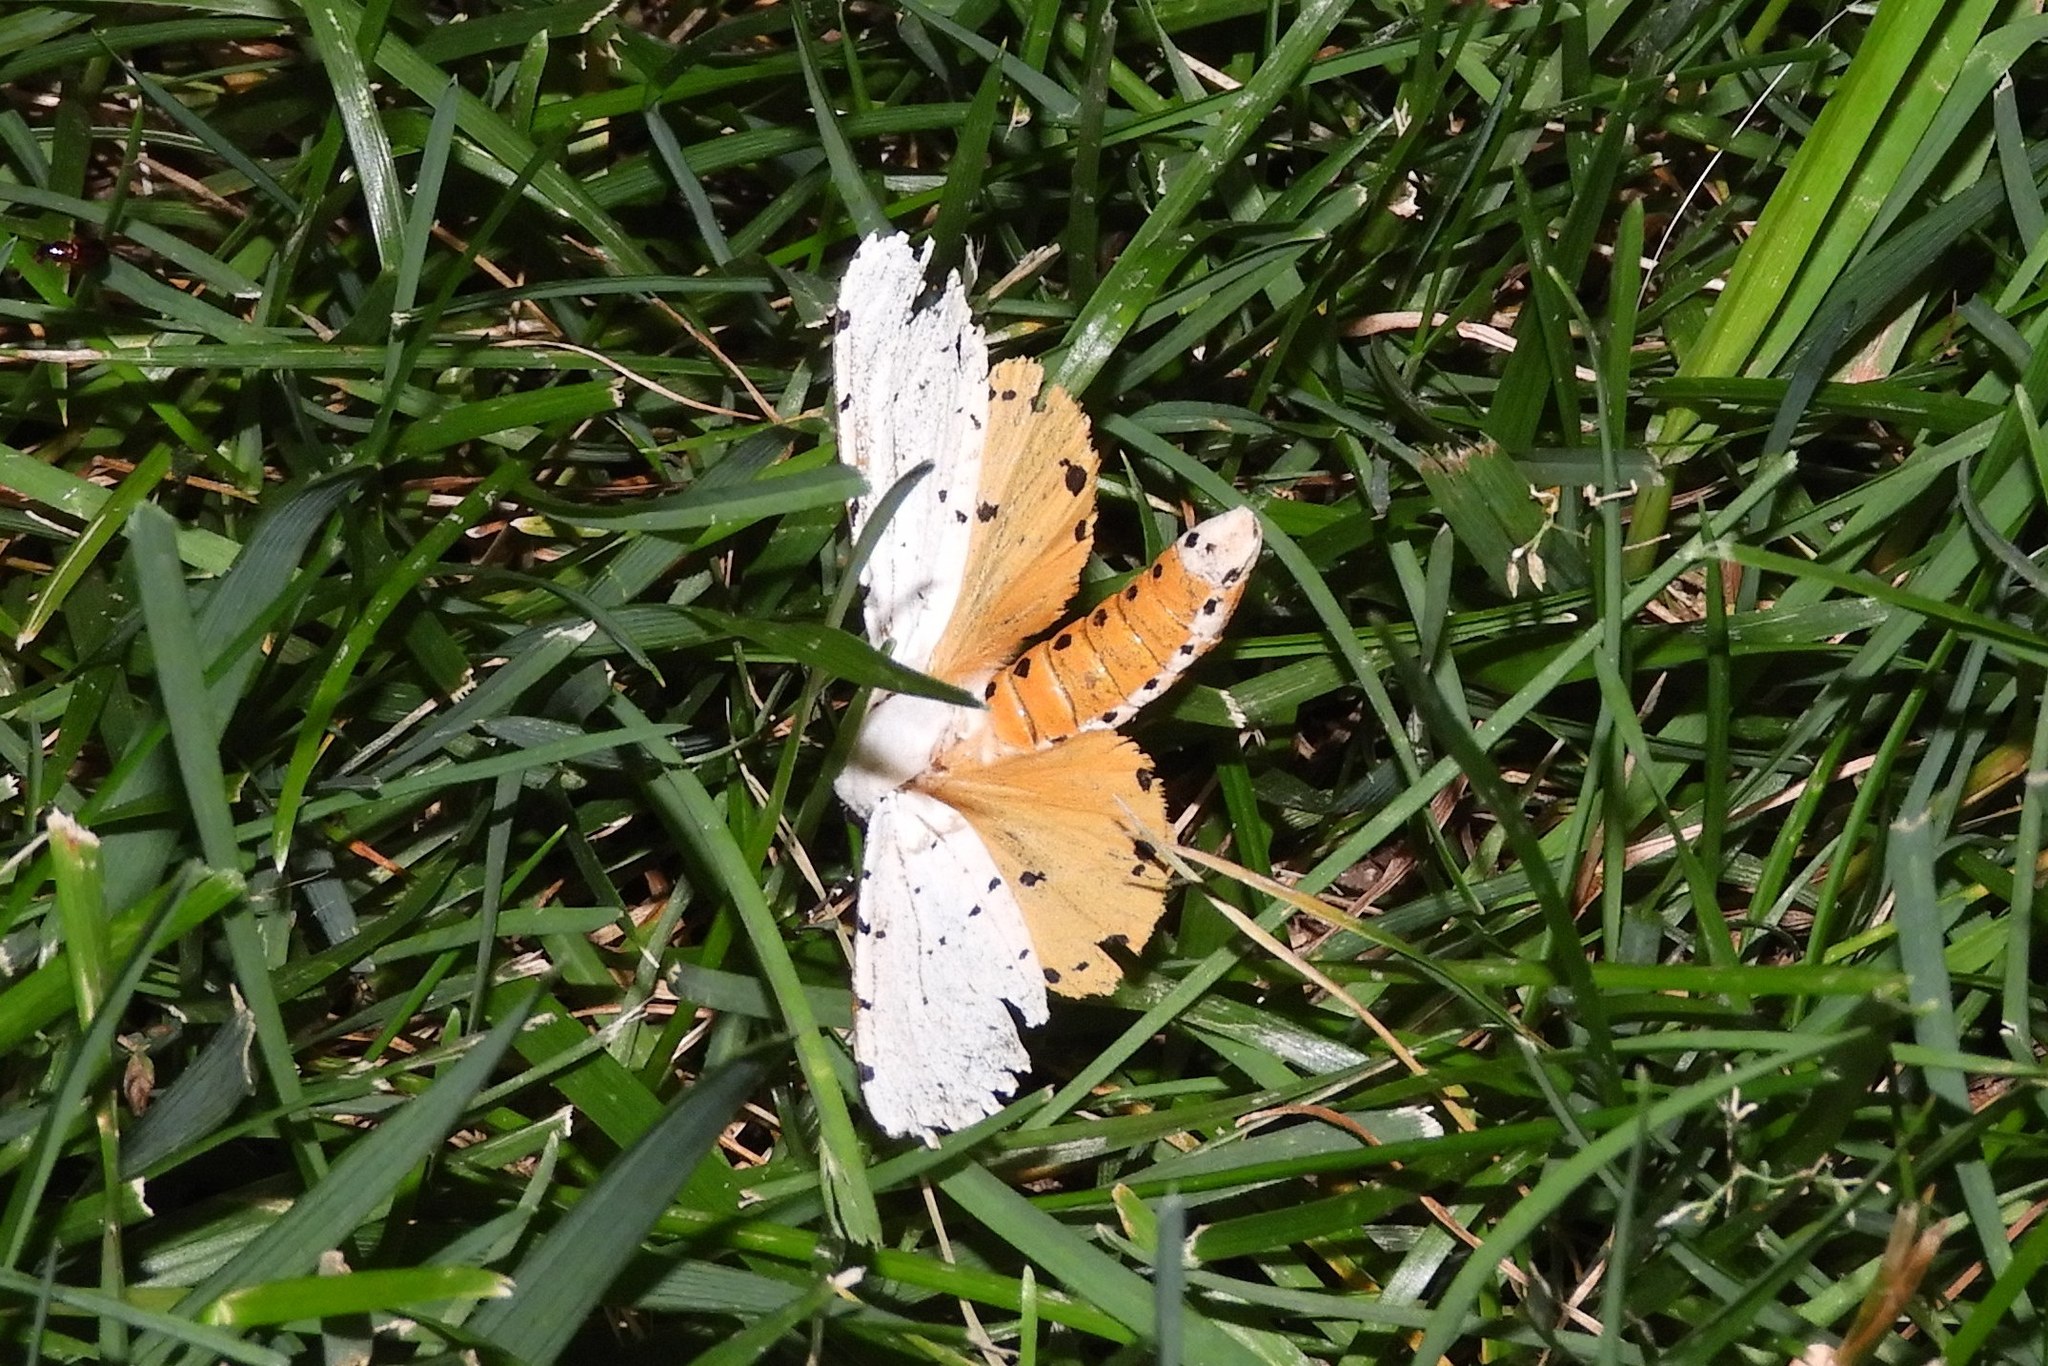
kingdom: Animalia
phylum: Arthropoda
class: Insecta
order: Lepidoptera
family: Erebidae
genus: Estigmene
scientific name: Estigmene acrea
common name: Salt marsh moth
